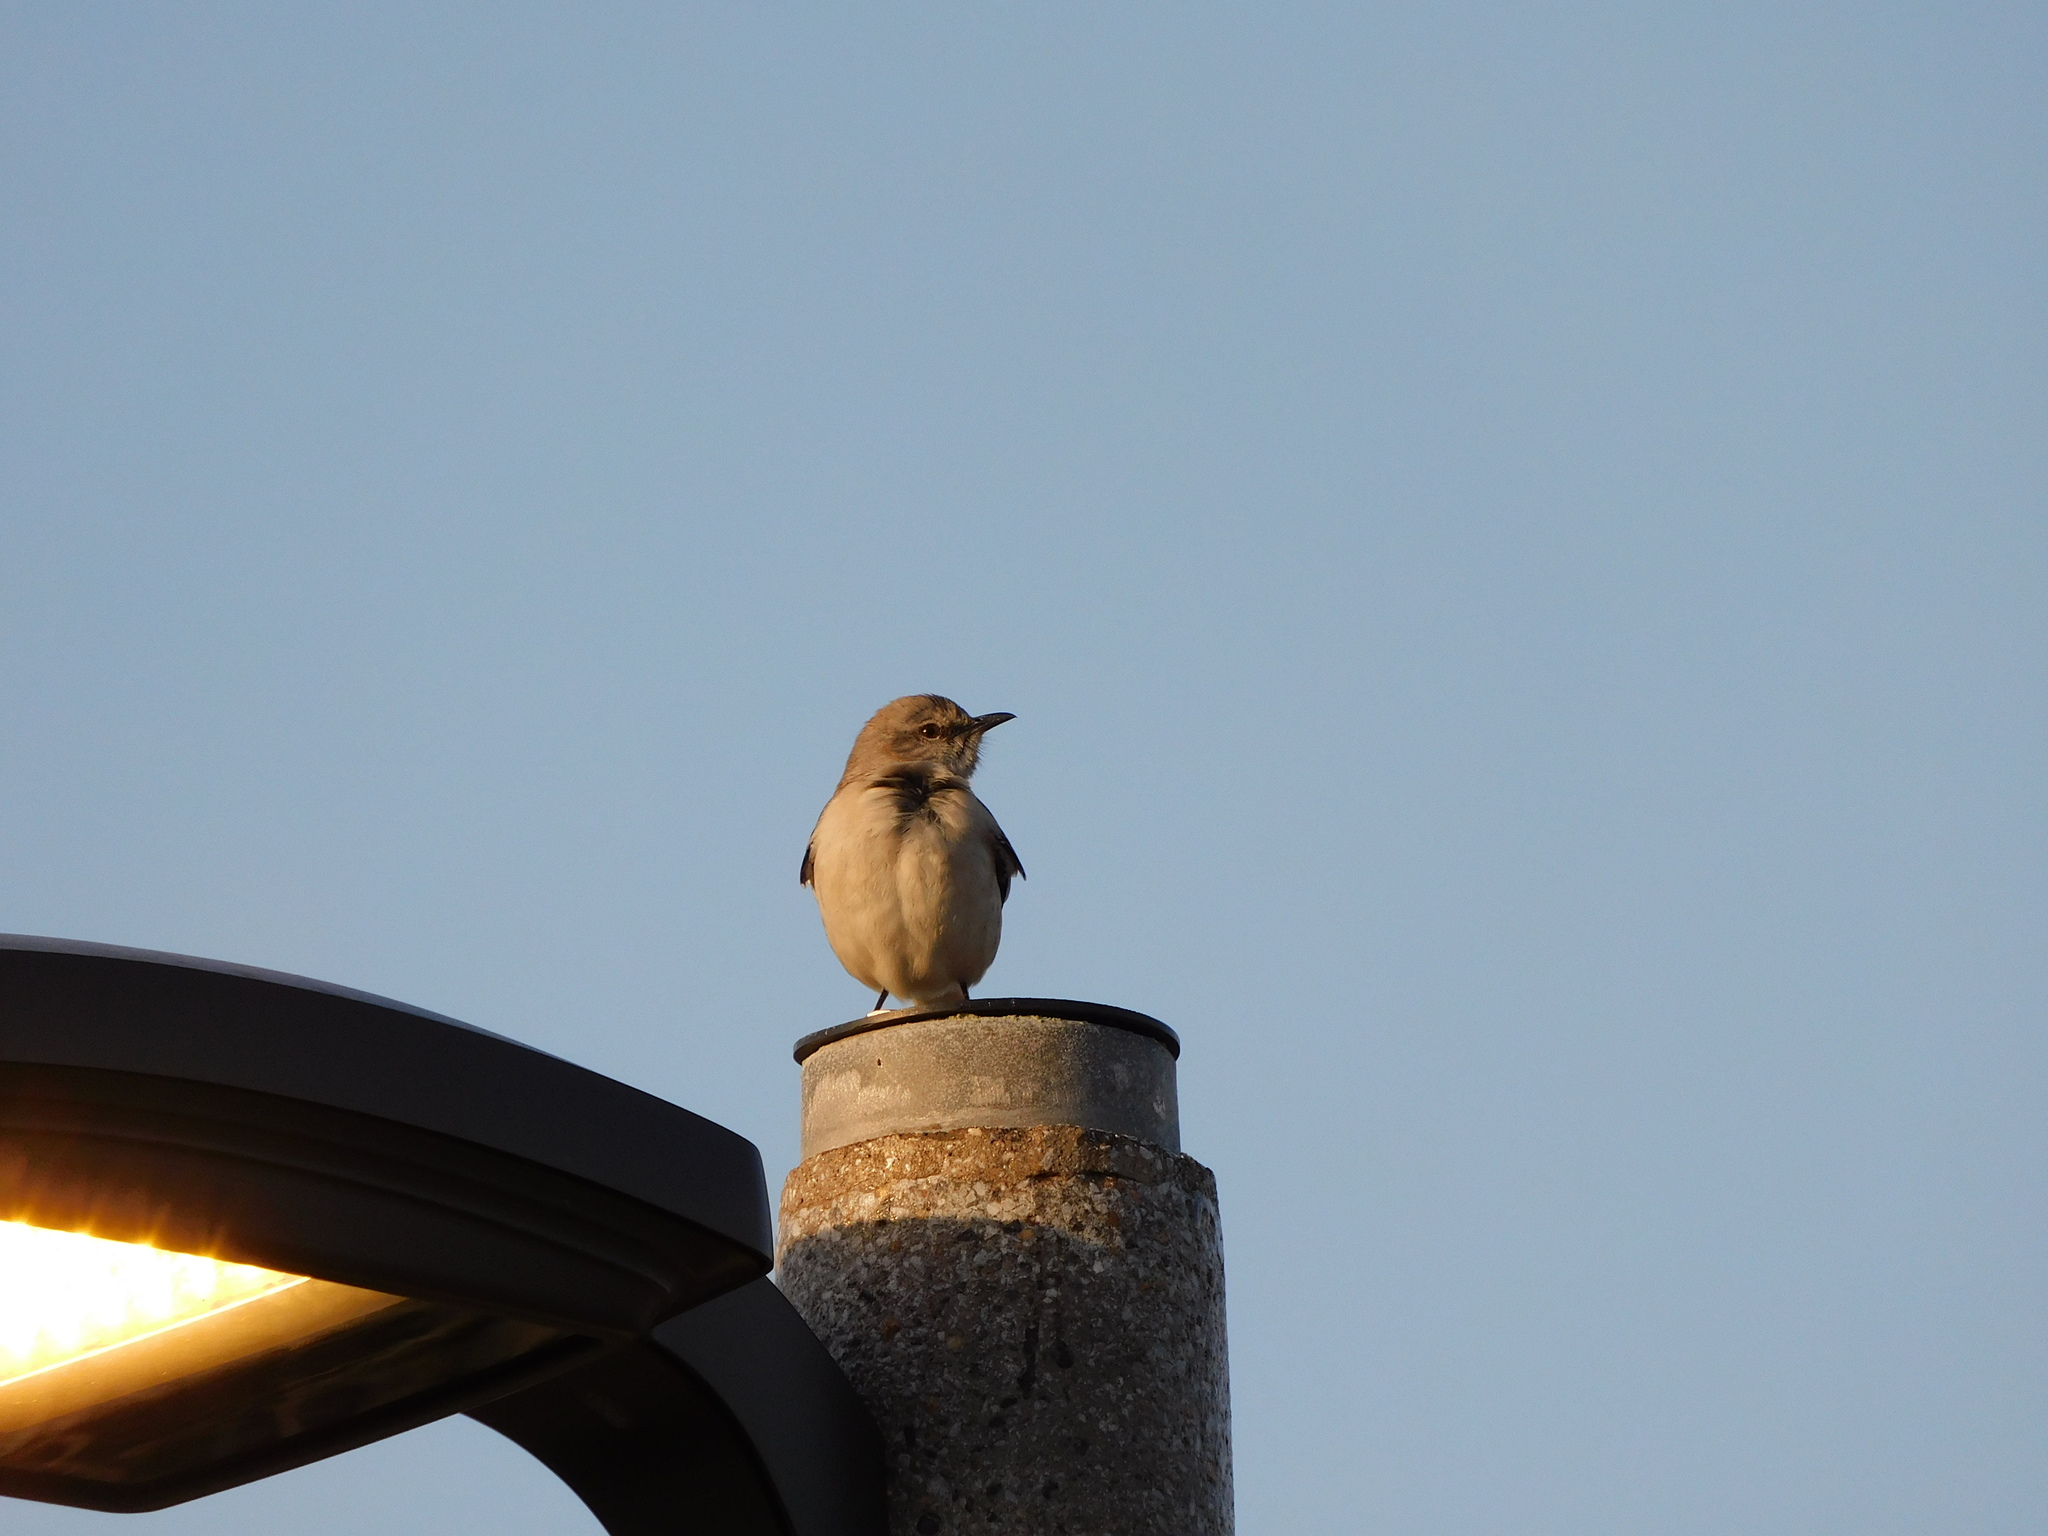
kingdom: Animalia
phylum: Chordata
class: Aves
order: Passeriformes
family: Mimidae
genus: Mimus
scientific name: Mimus polyglottos
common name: Northern mockingbird
